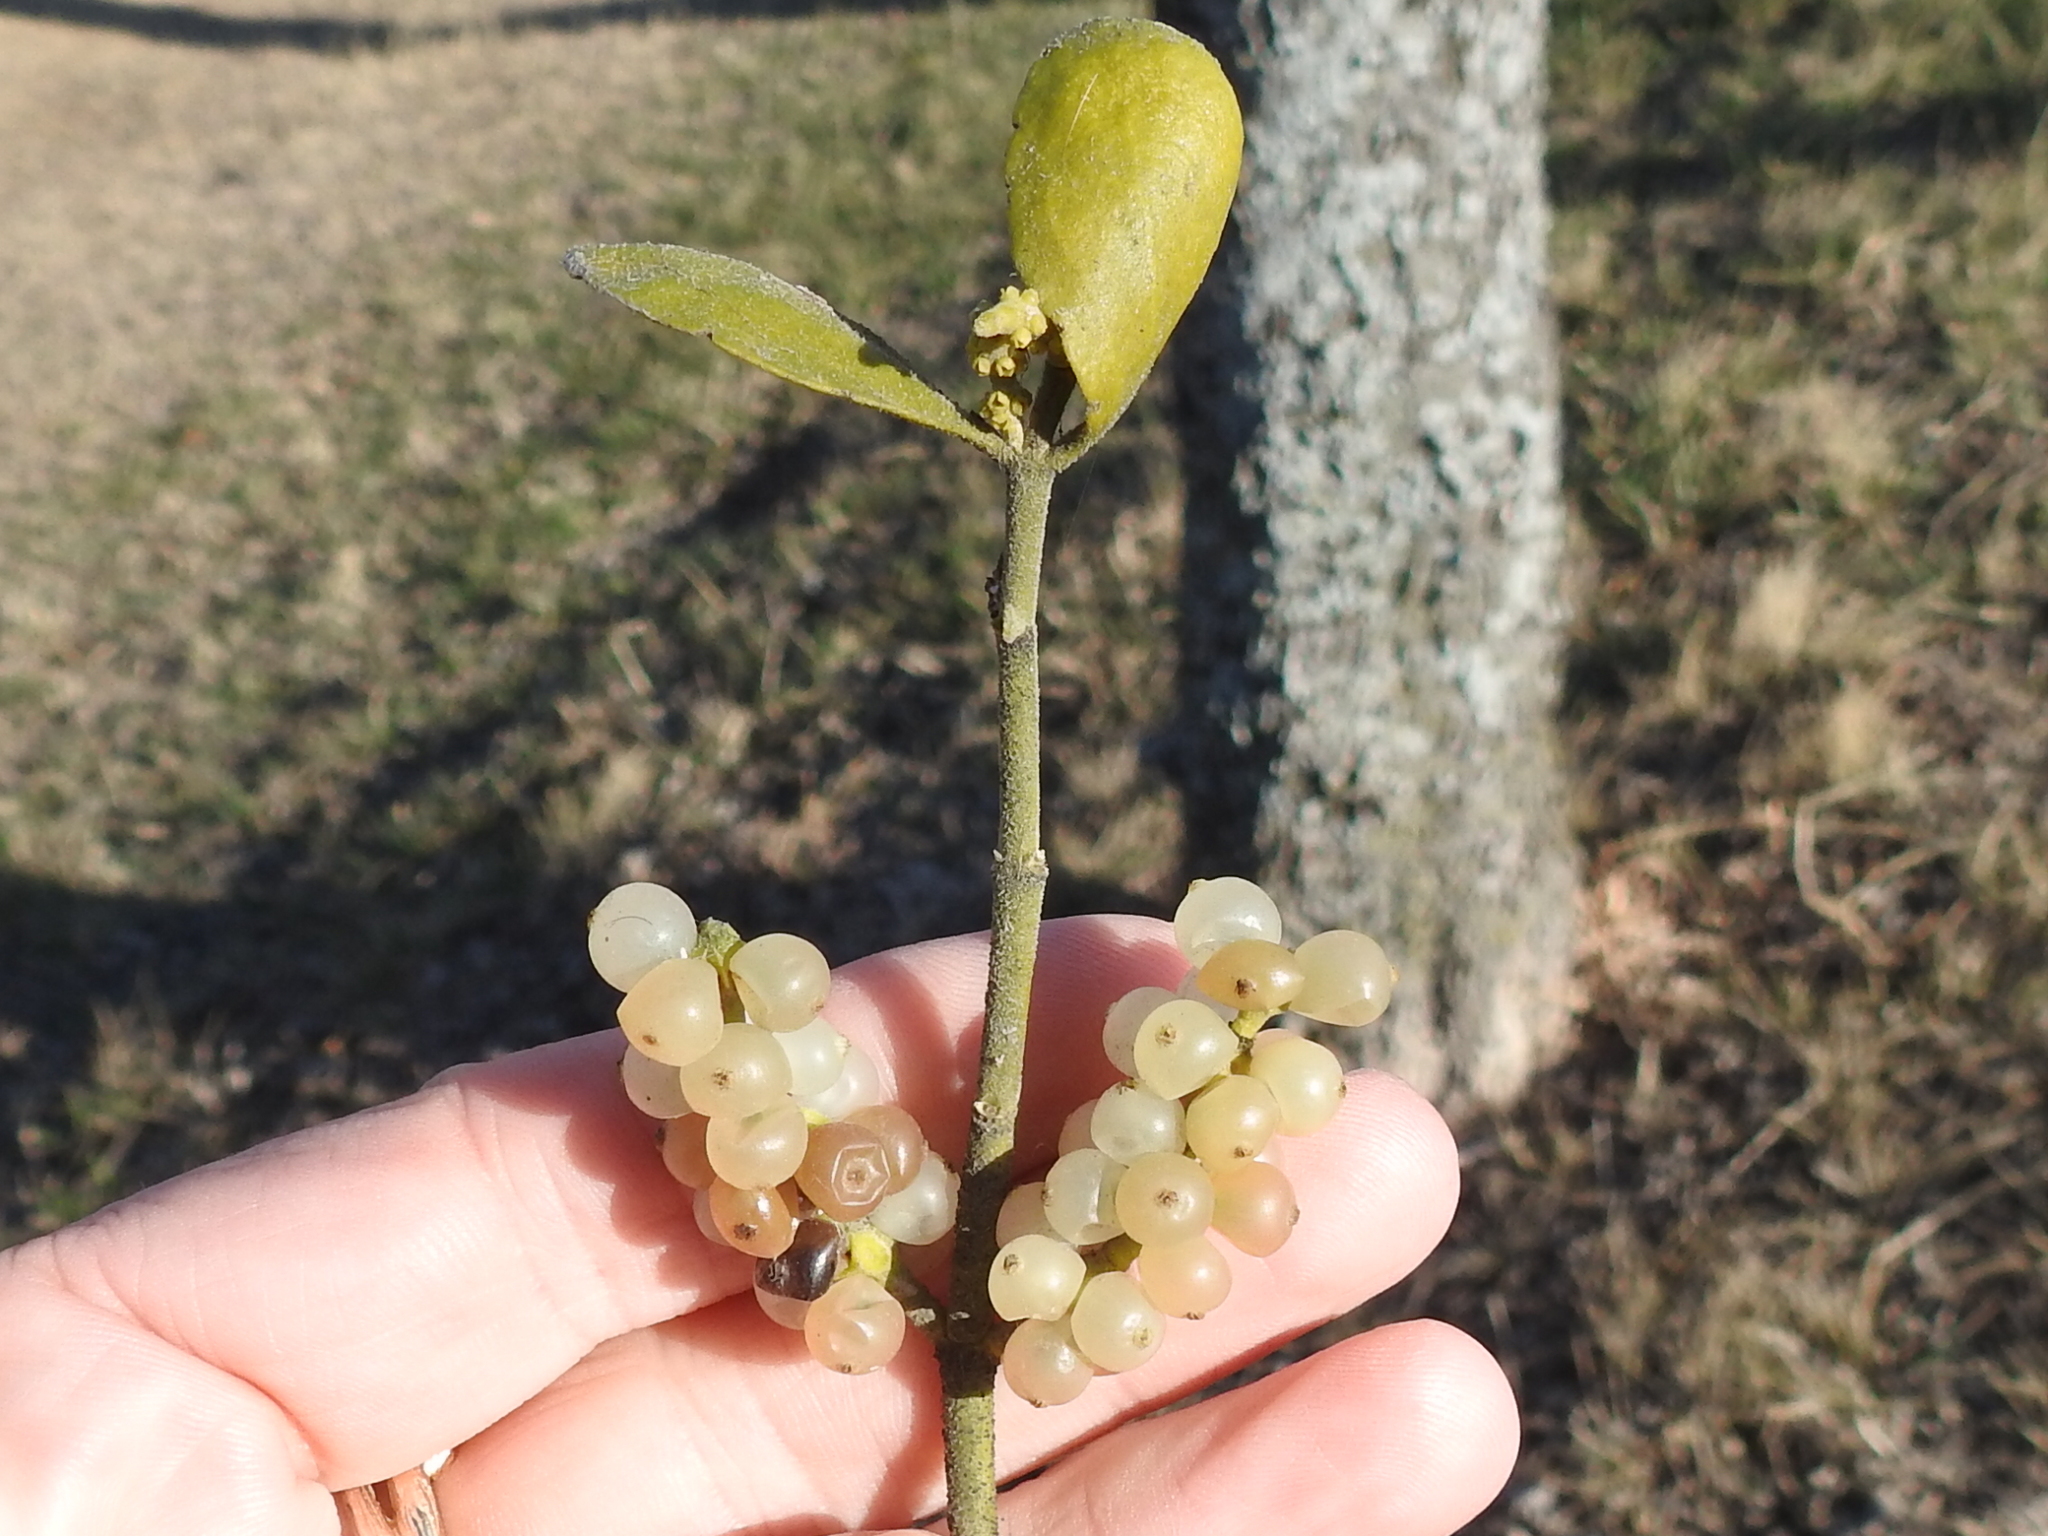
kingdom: Plantae
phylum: Tracheophyta
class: Magnoliopsida
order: Santalales
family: Viscaceae
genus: Phoradendron
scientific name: Phoradendron leucarpum
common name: Pacific mistletoe
